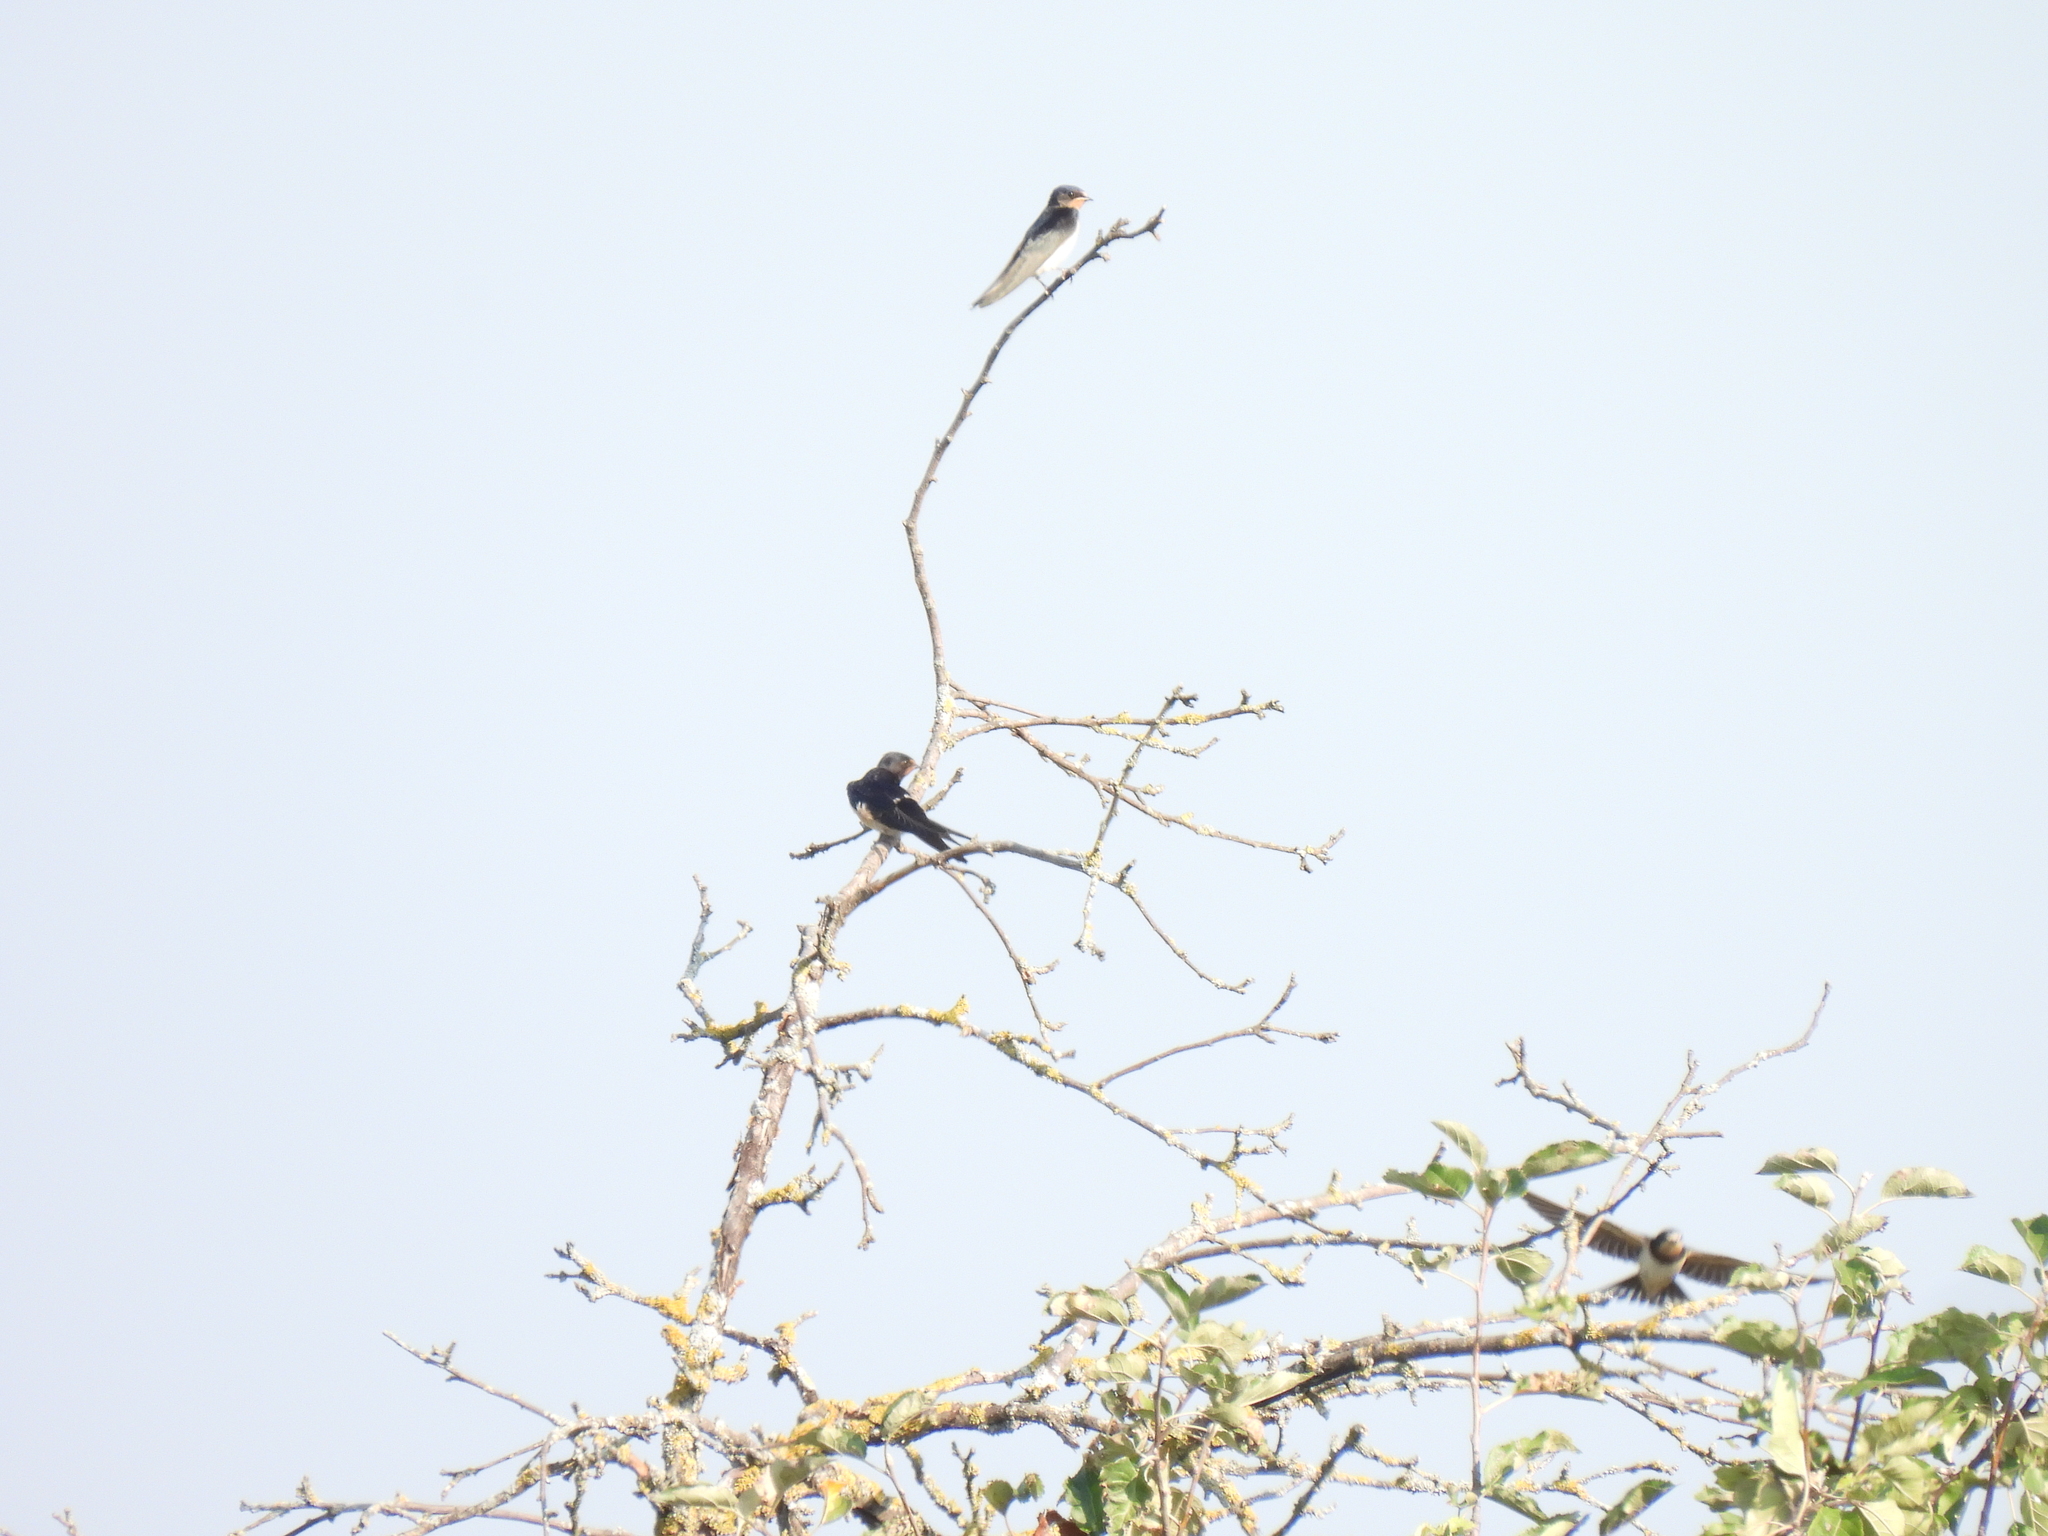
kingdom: Animalia
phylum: Chordata
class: Aves
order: Passeriformes
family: Hirundinidae
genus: Hirundo
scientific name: Hirundo rustica
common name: Barn swallow
